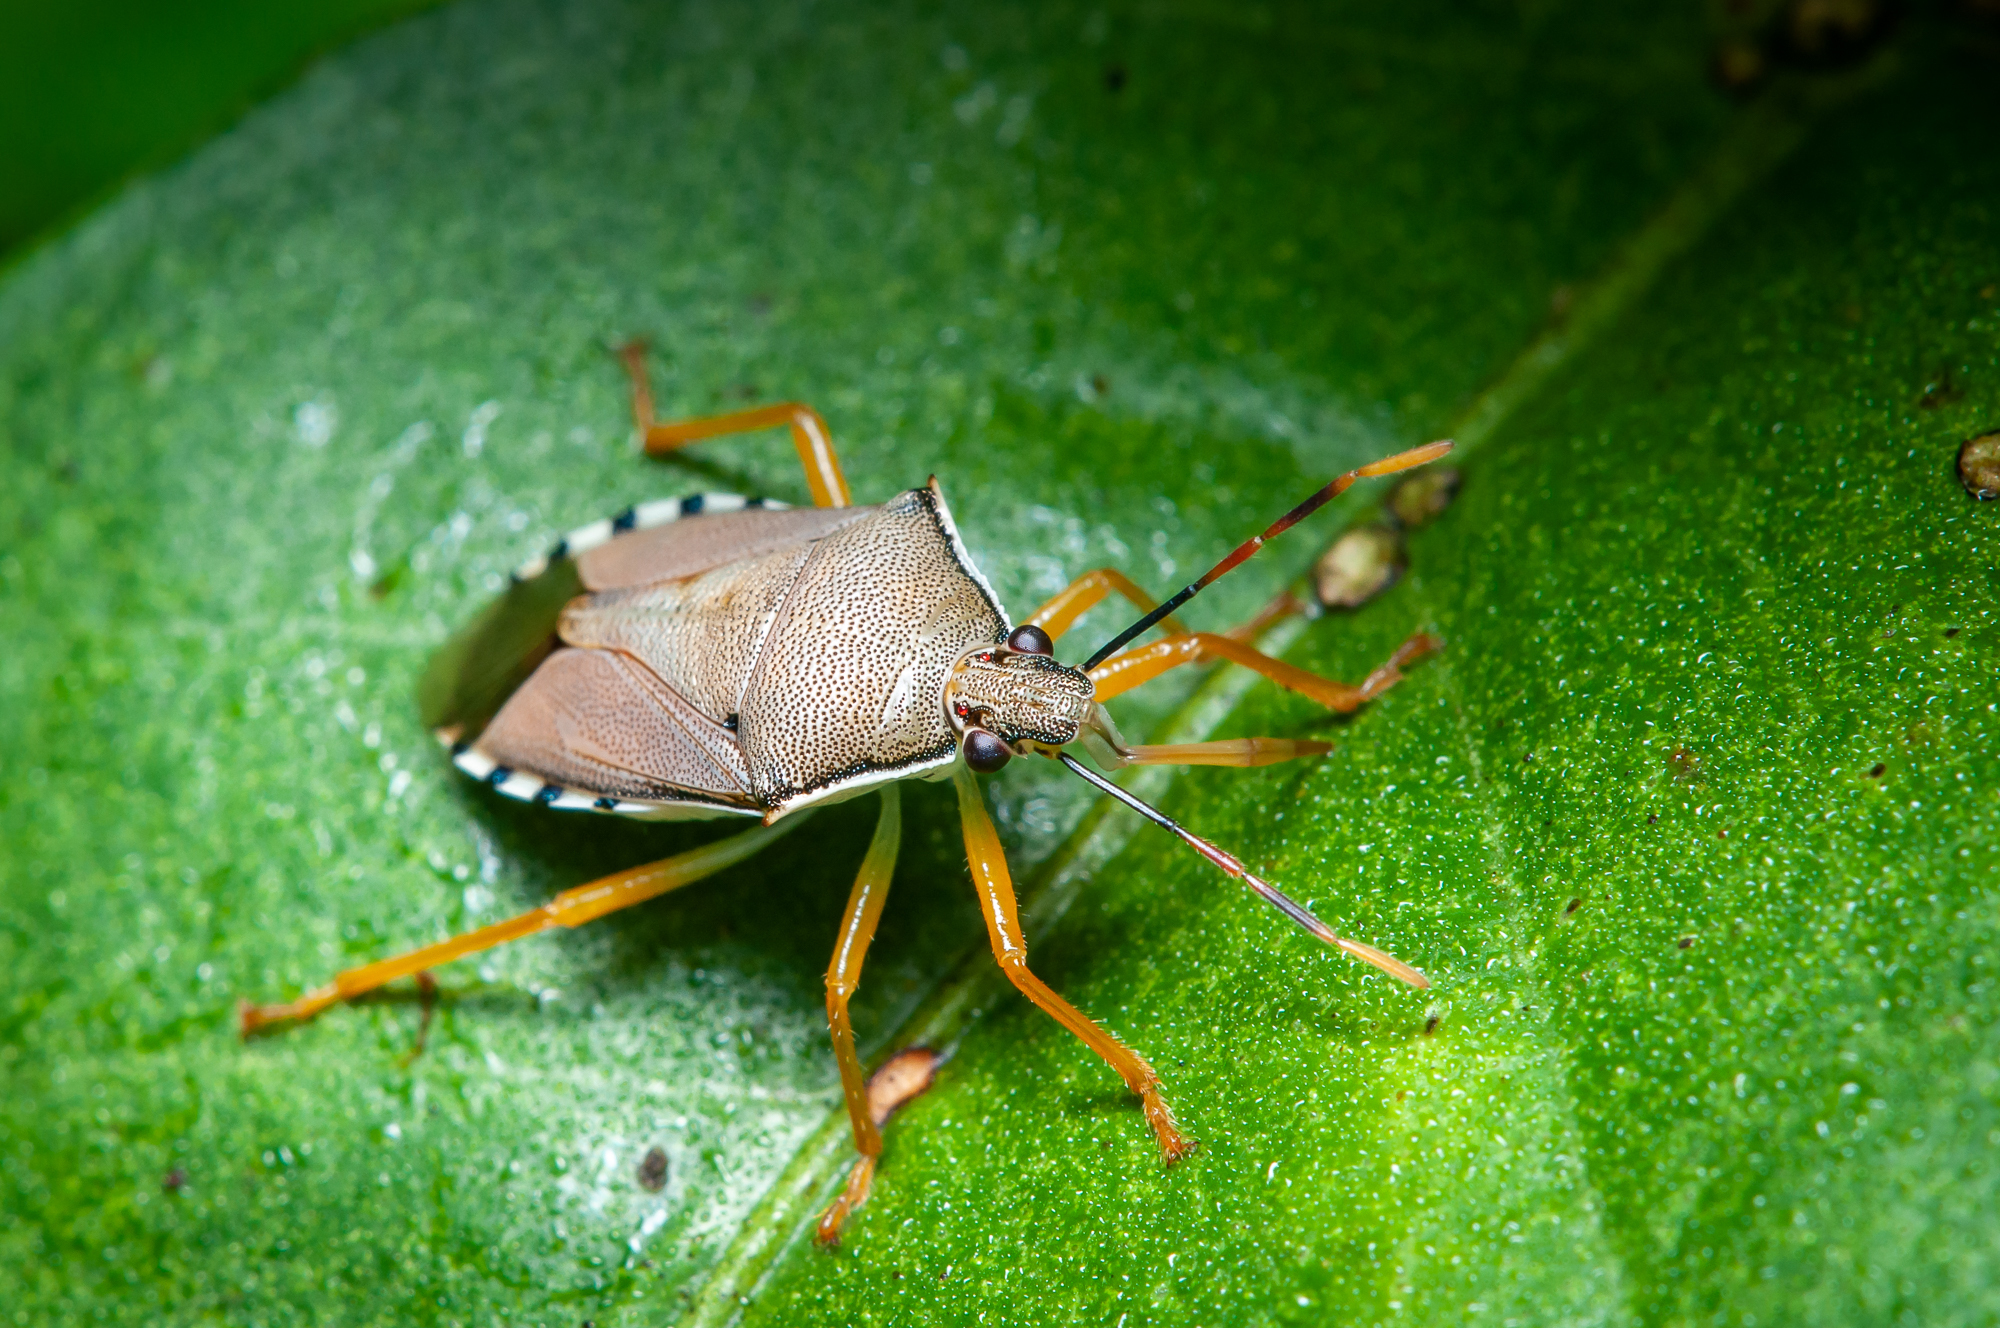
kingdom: Animalia
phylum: Arthropoda
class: Insecta
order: Hemiptera
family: Pentatomidae
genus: Supputius
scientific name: Supputius
